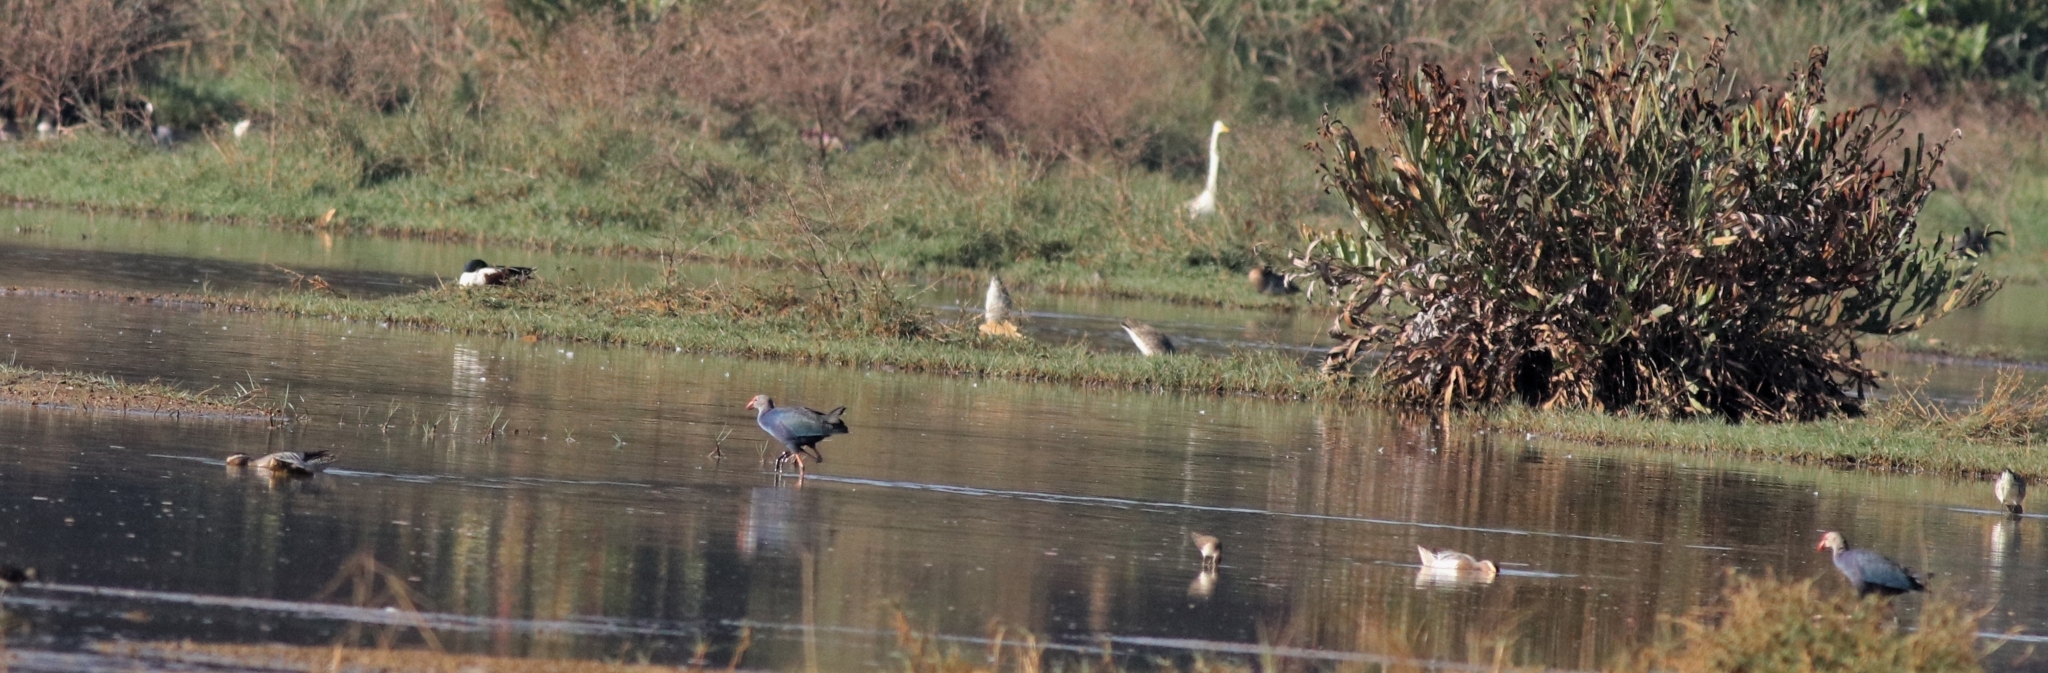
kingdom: Animalia
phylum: Chordata
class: Aves
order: Anseriformes
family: Anatidae
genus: Spatula
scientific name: Spatula querquedula
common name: Garganey
